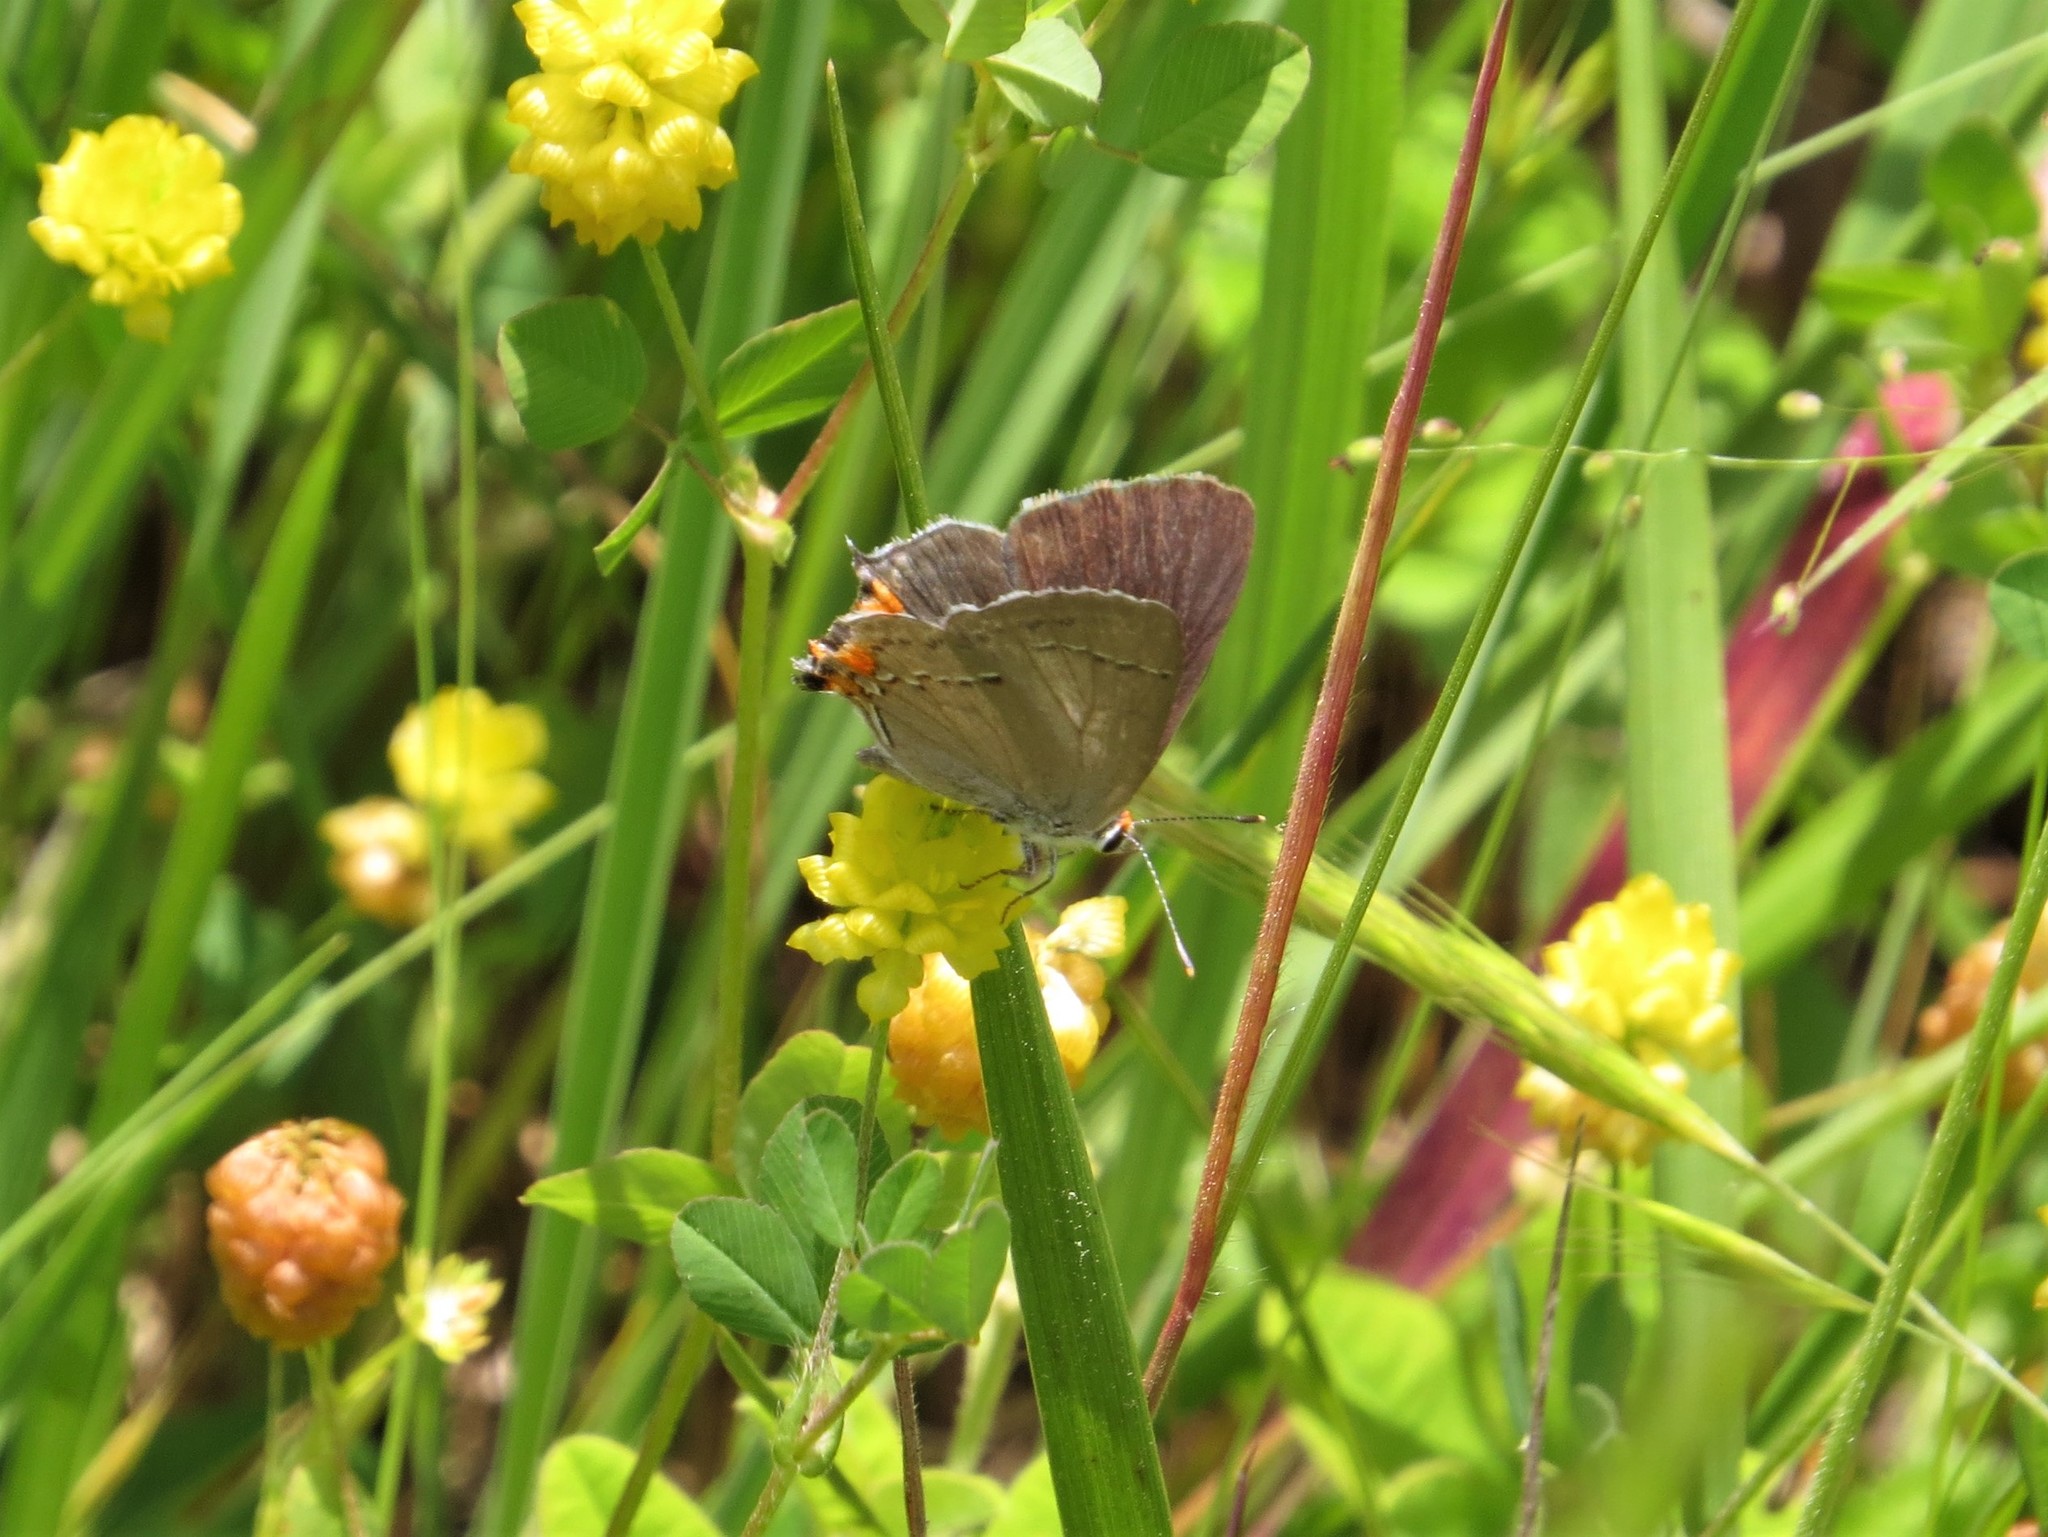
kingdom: Animalia
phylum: Arthropoda
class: Insecta
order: Lepidoptera
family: Lycaenidae
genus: Strymon
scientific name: Strymon melinus
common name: Gray hairstreak
